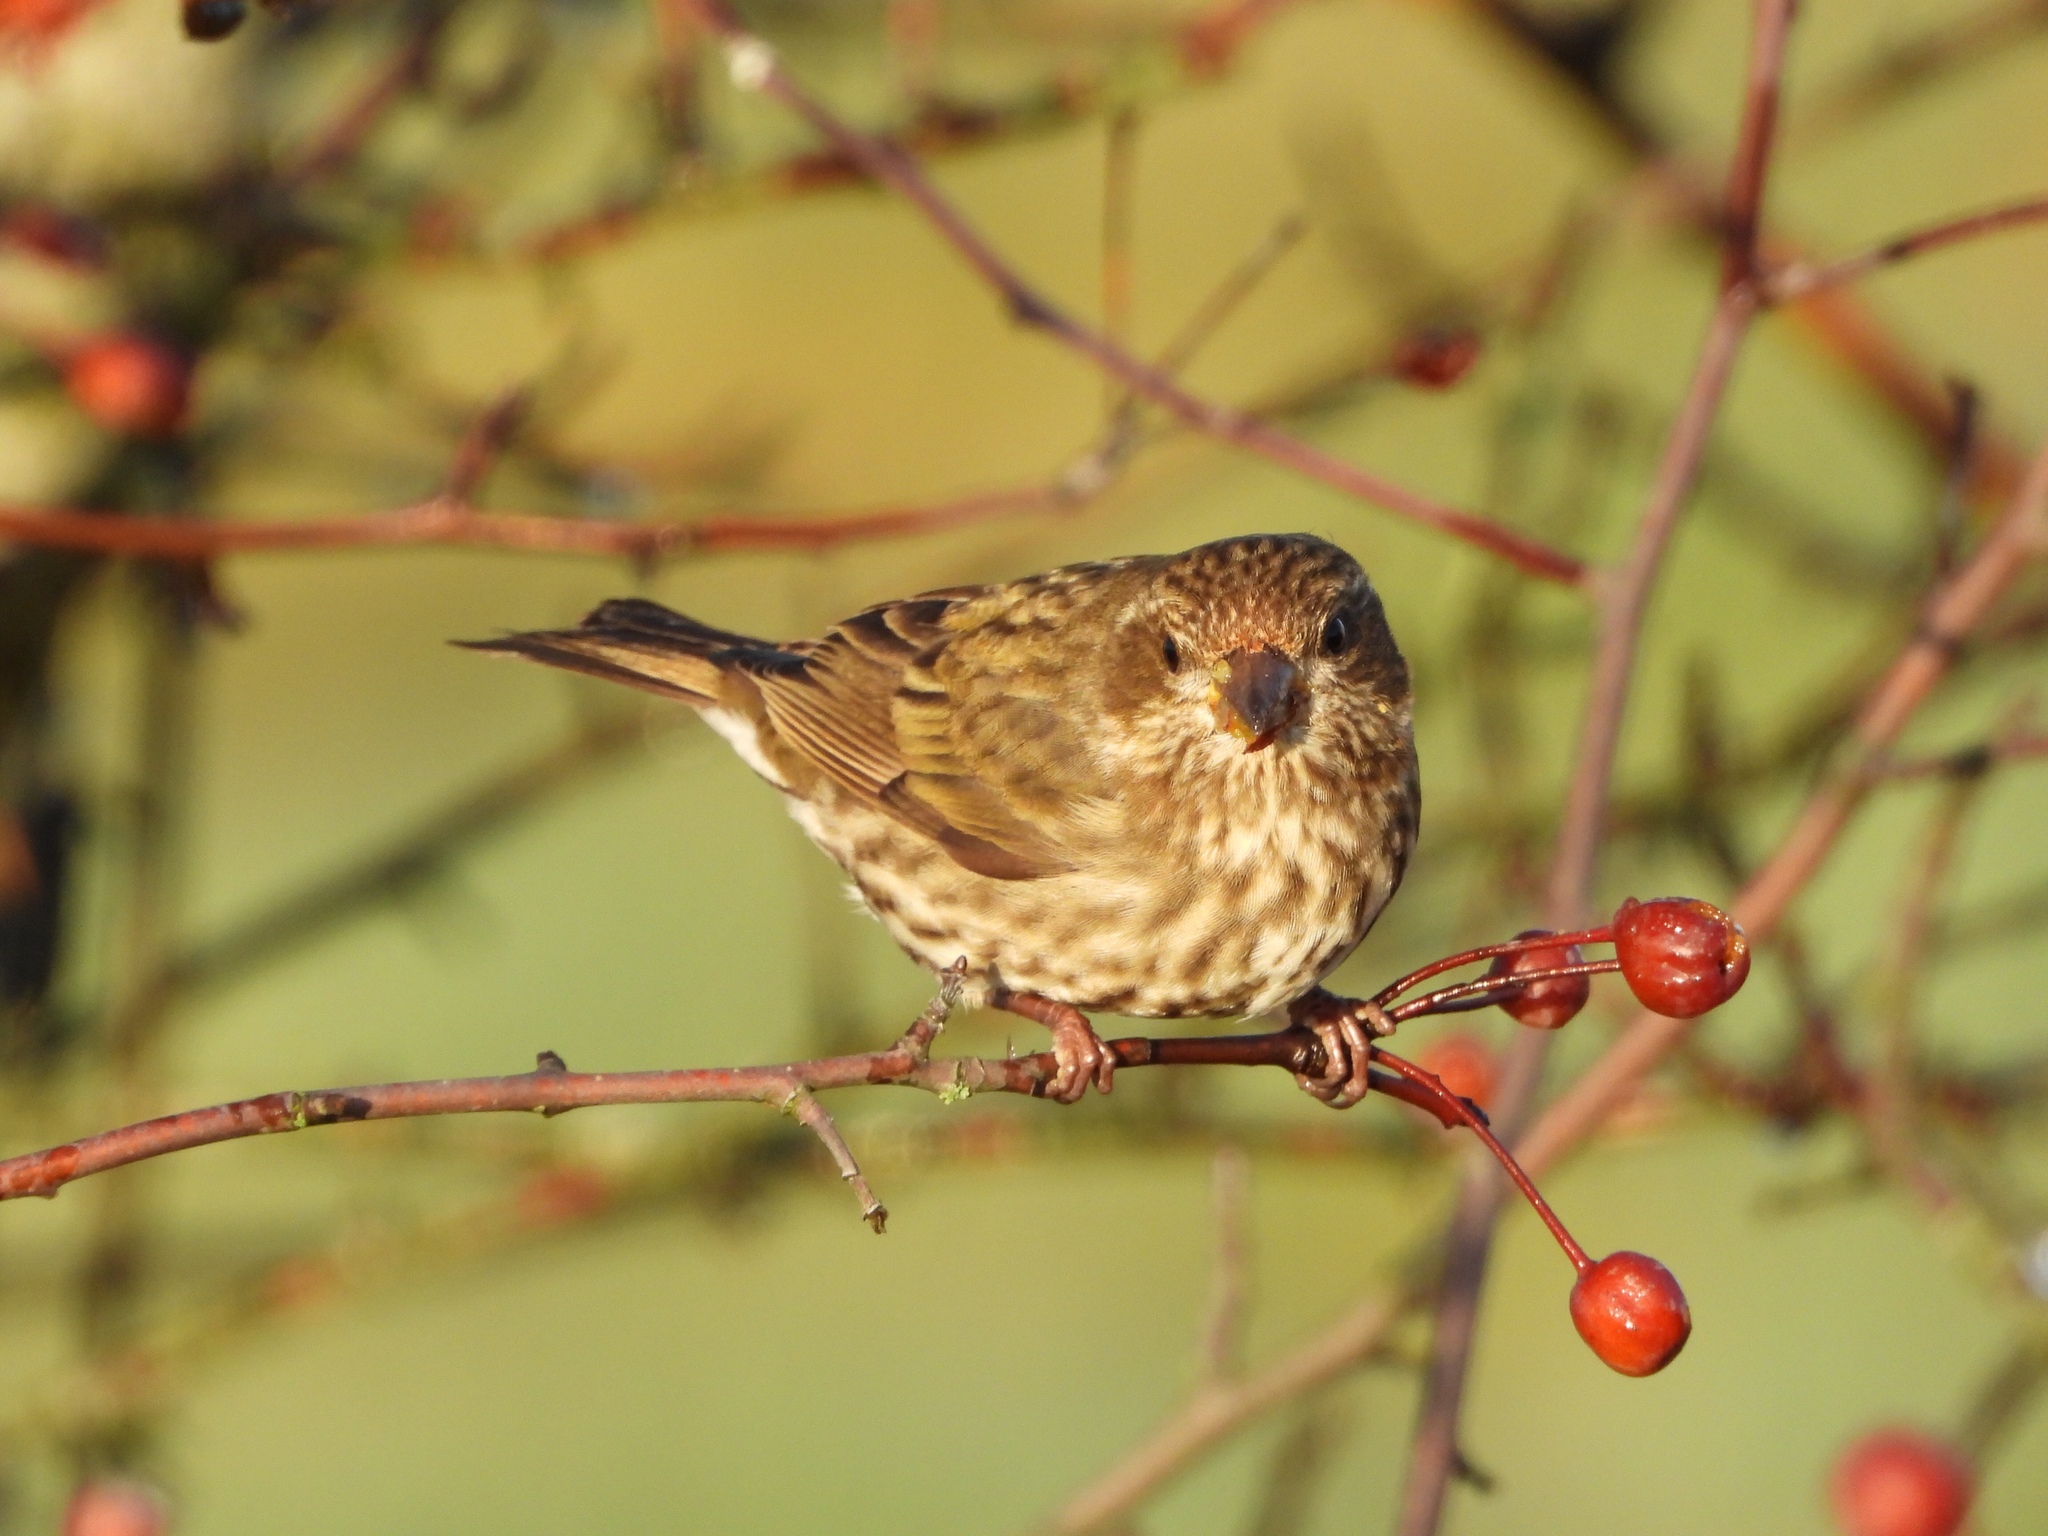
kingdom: Animalia
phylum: Chordata
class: Aves
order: Passeriformes
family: Fringillidae
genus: Haemorhous
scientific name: Haemorhous purpureus
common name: Purple finch
